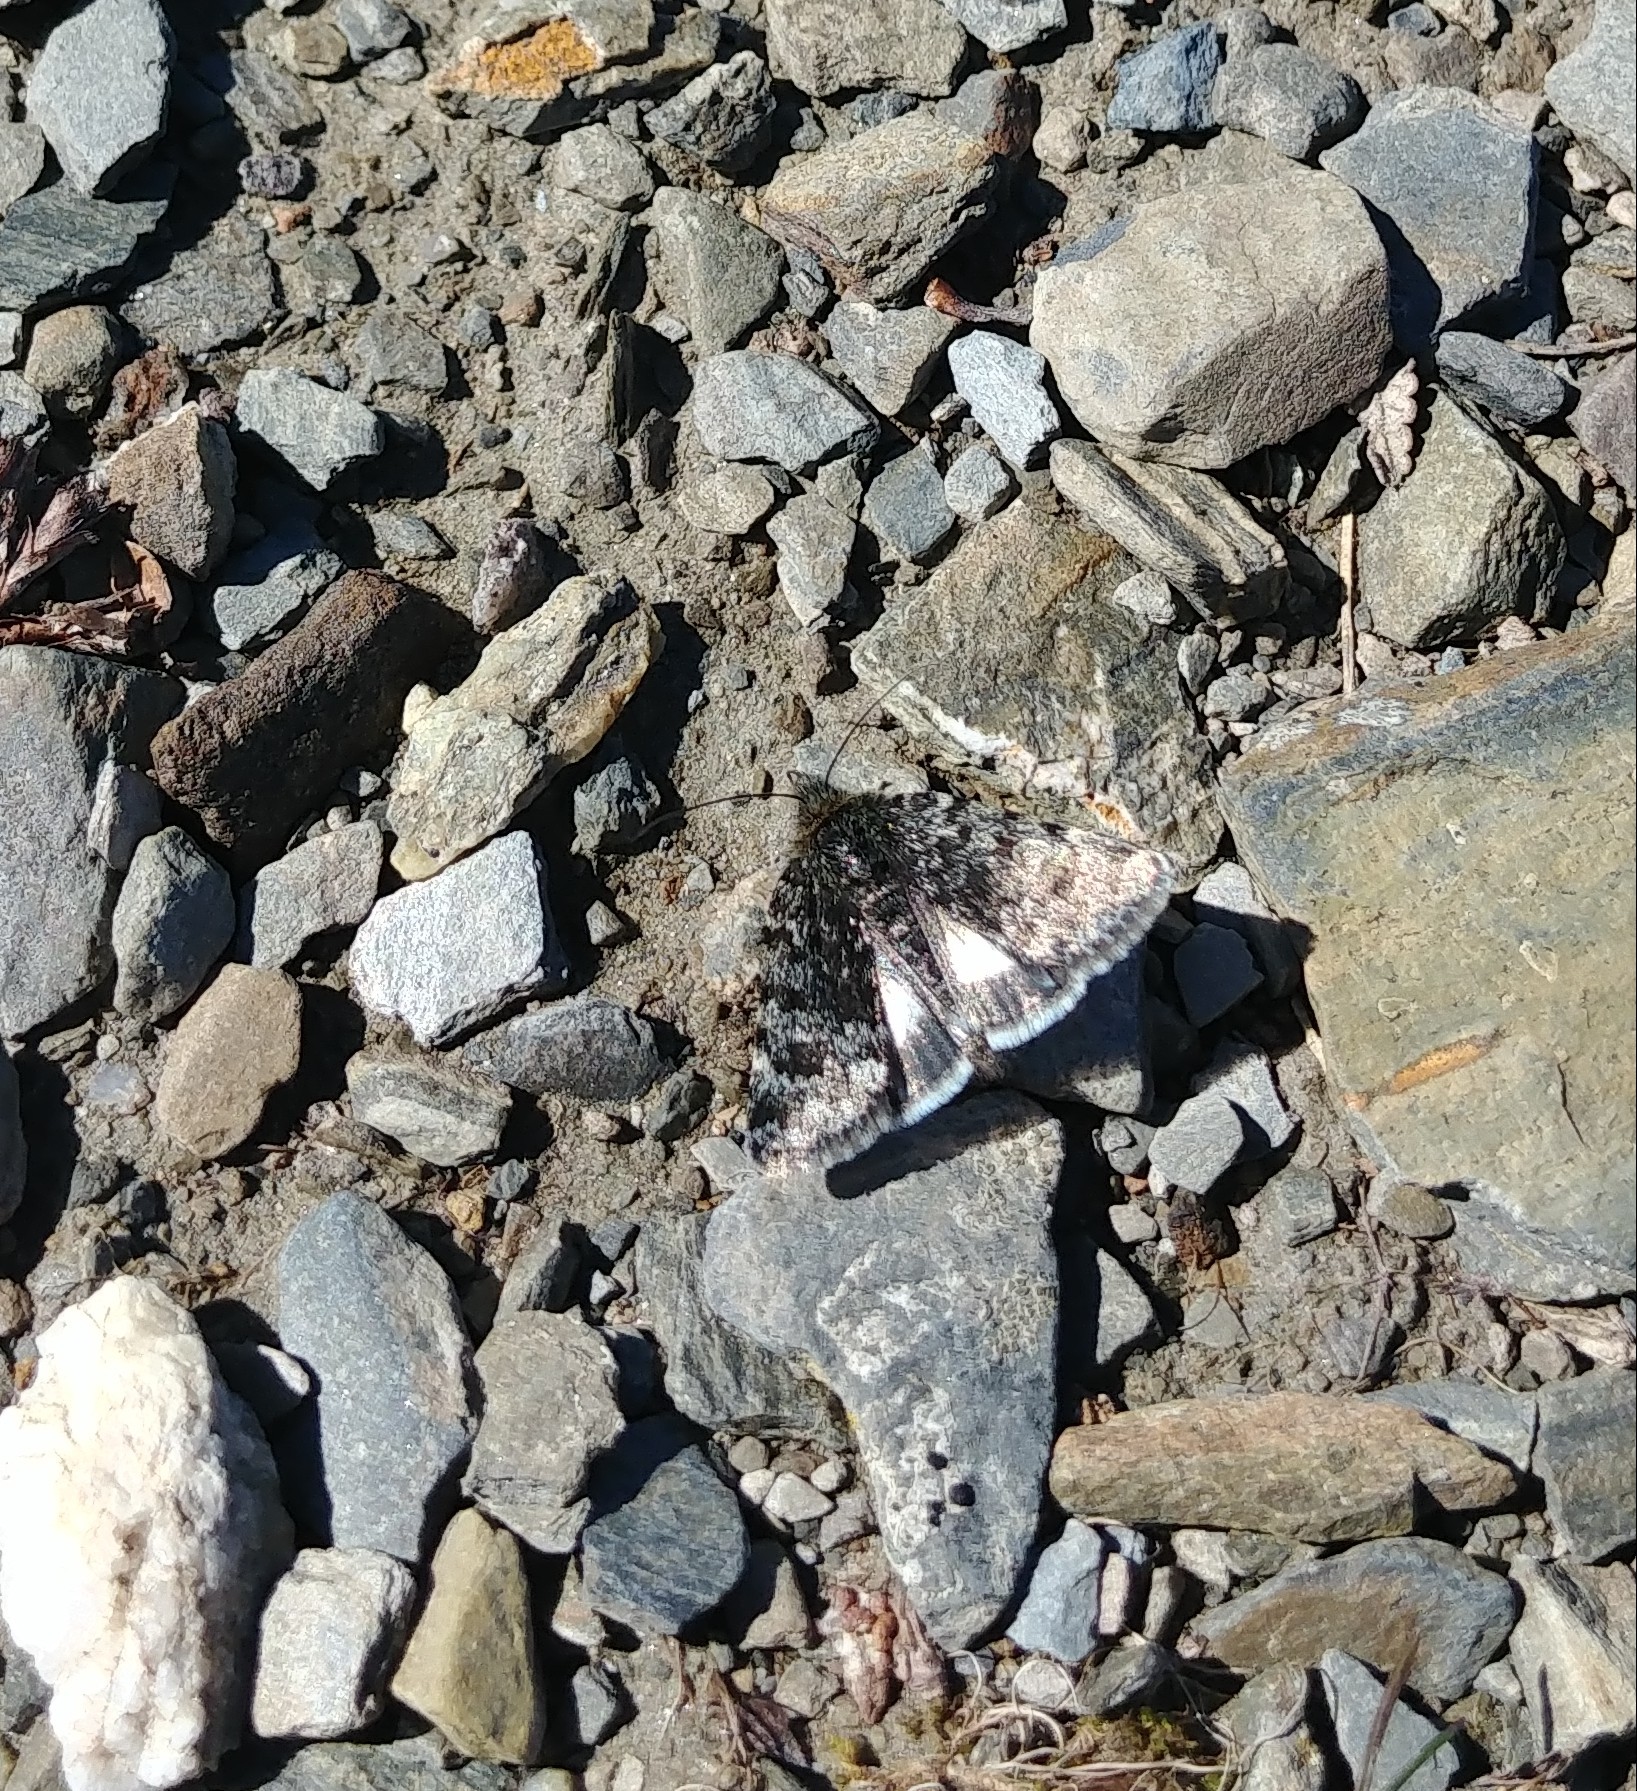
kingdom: Animalia
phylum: Arthropoda
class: Insecta
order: Lepidoptera
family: Noctuidae
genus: Sympistis
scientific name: Sympistis nigrita
